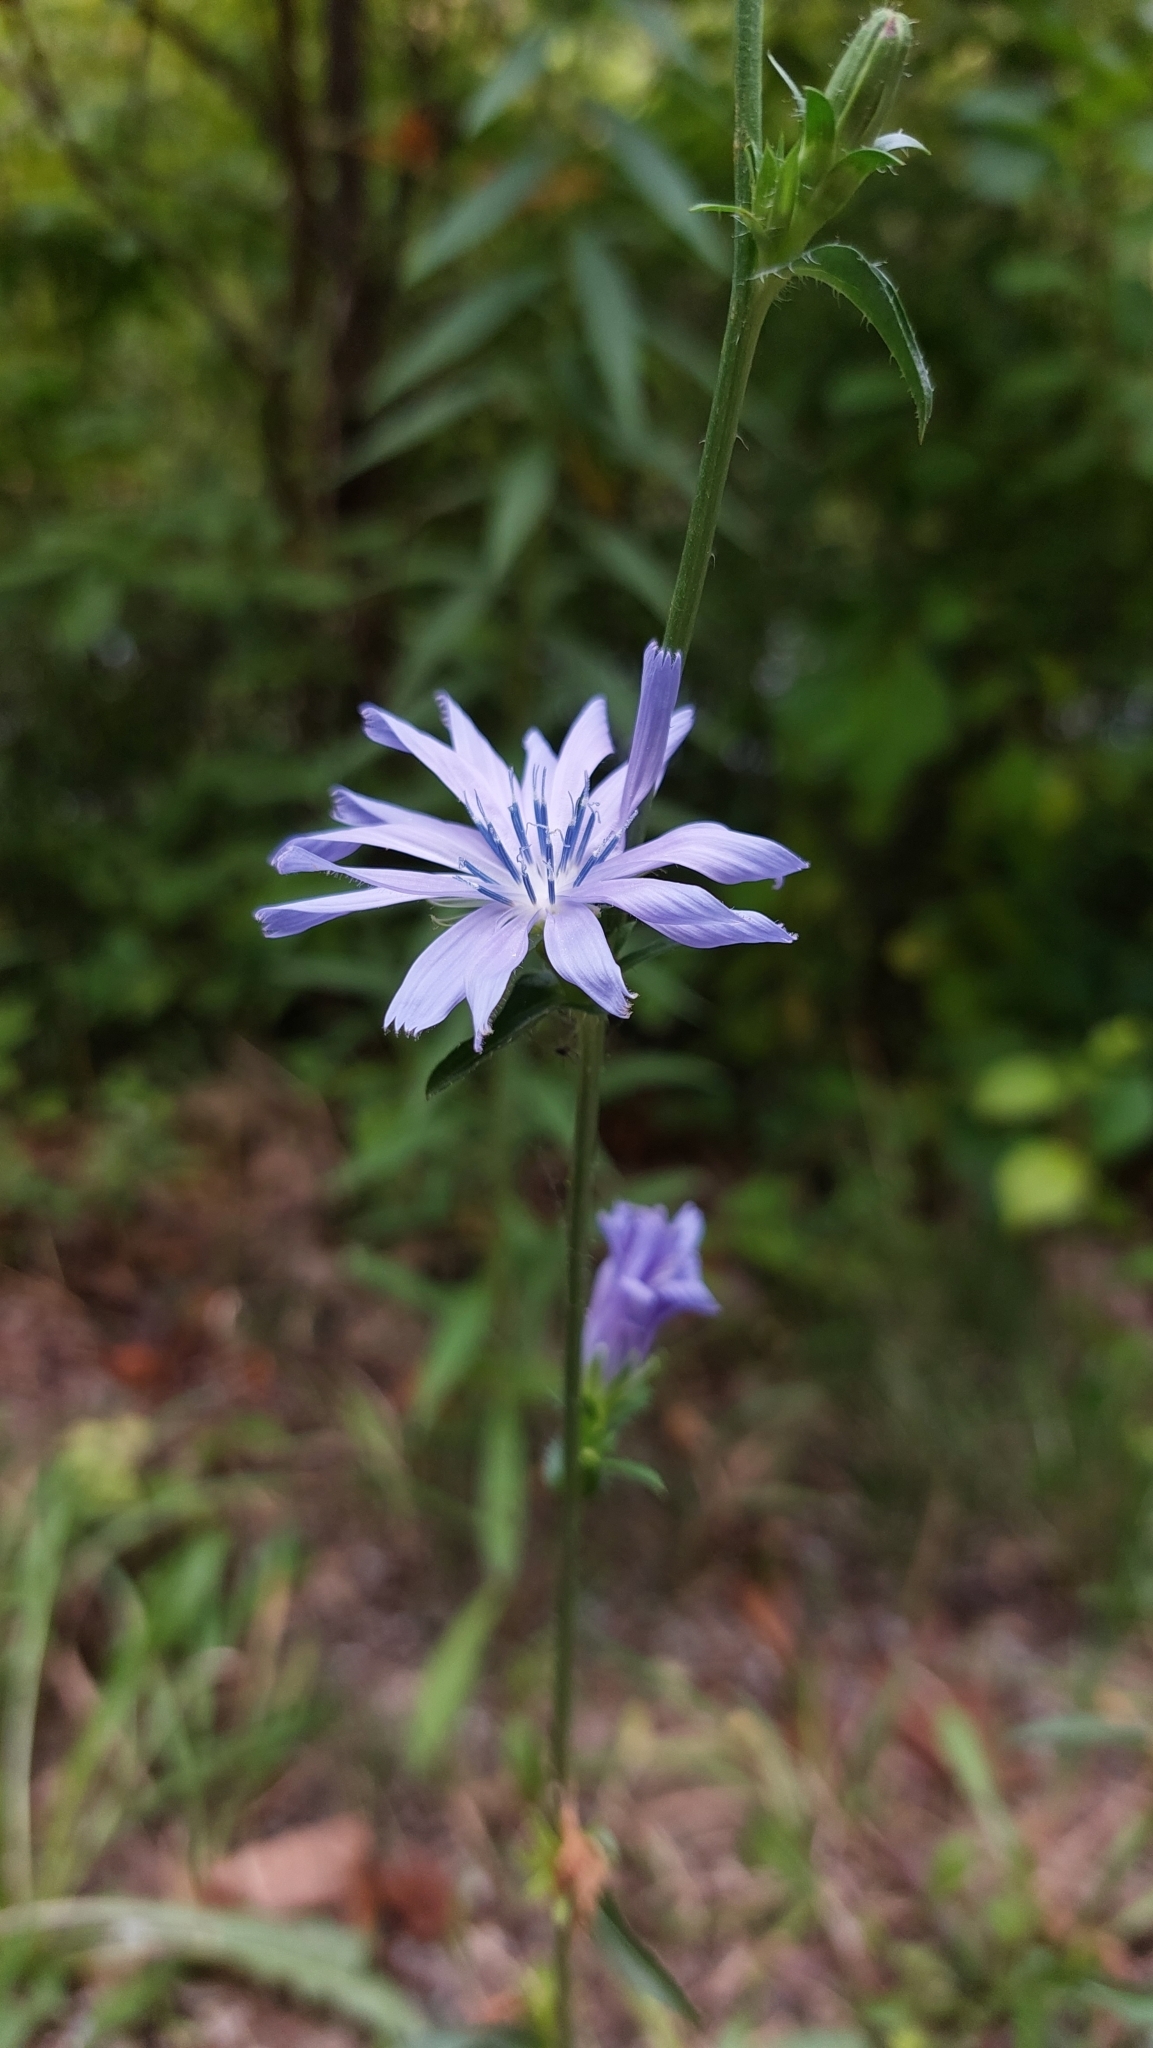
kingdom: Plantae
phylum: Tracheophyta
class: Magnoliopsida
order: Asterales
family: Asteraceae
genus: Cichorium
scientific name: Cichorium intybus
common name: Chicory
